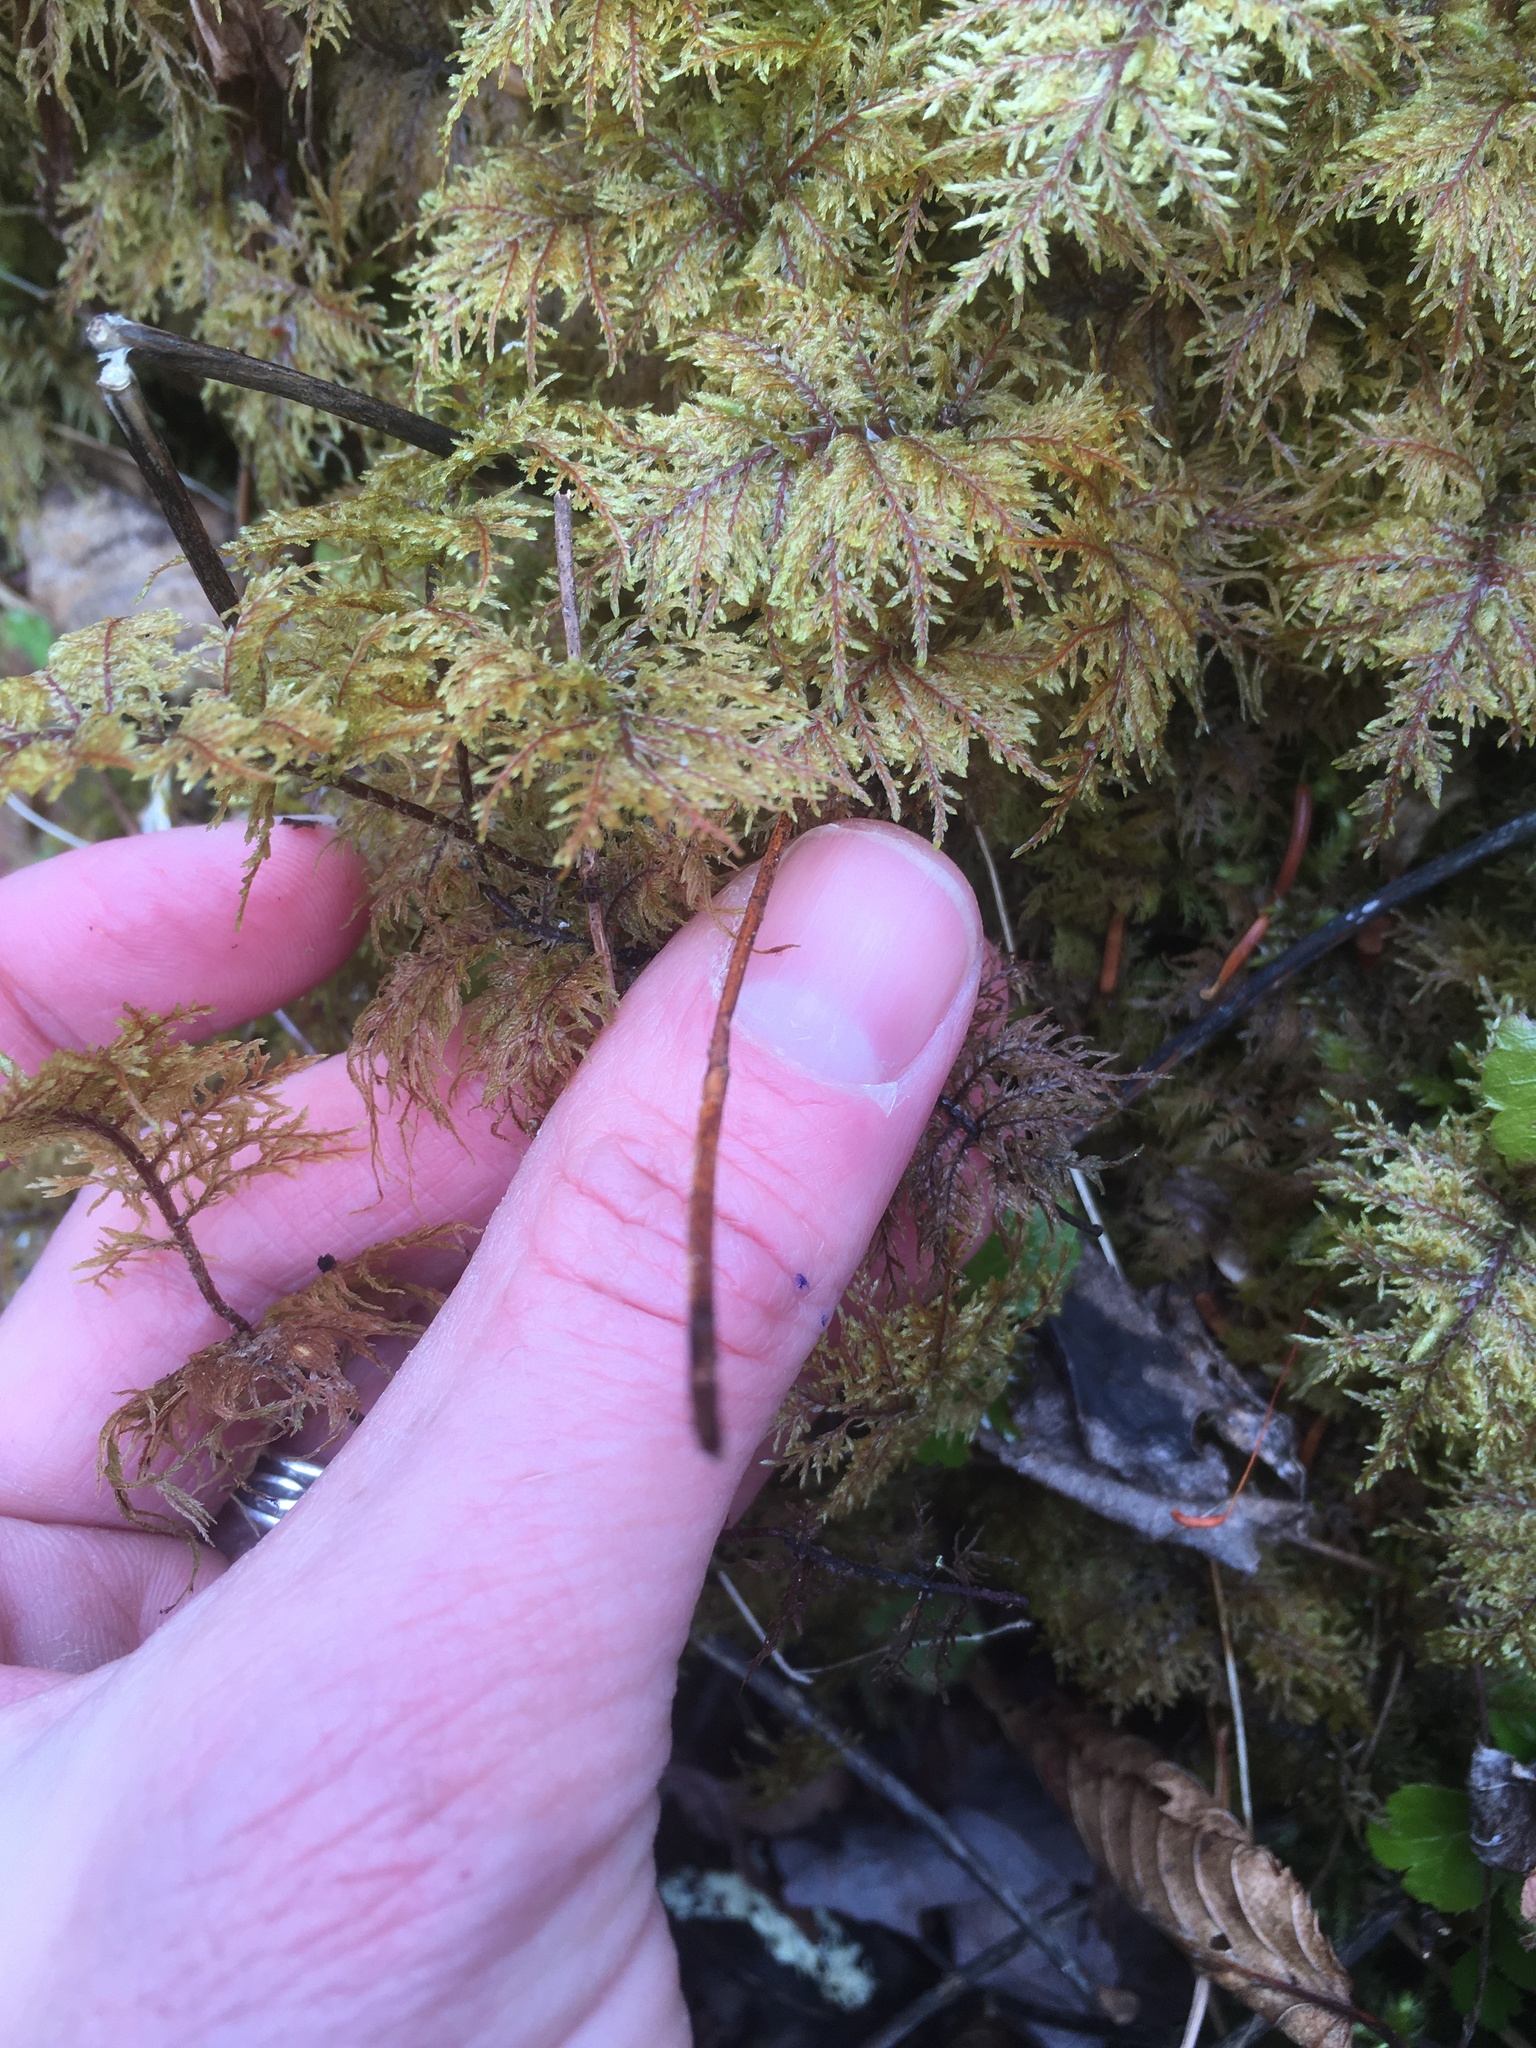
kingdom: Plantae
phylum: Bryophyta
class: Bryopsida
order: Hypnales
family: Hylocomiaceae
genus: Hylocomium
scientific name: Hylocomium splendens
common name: Stairstep moss
